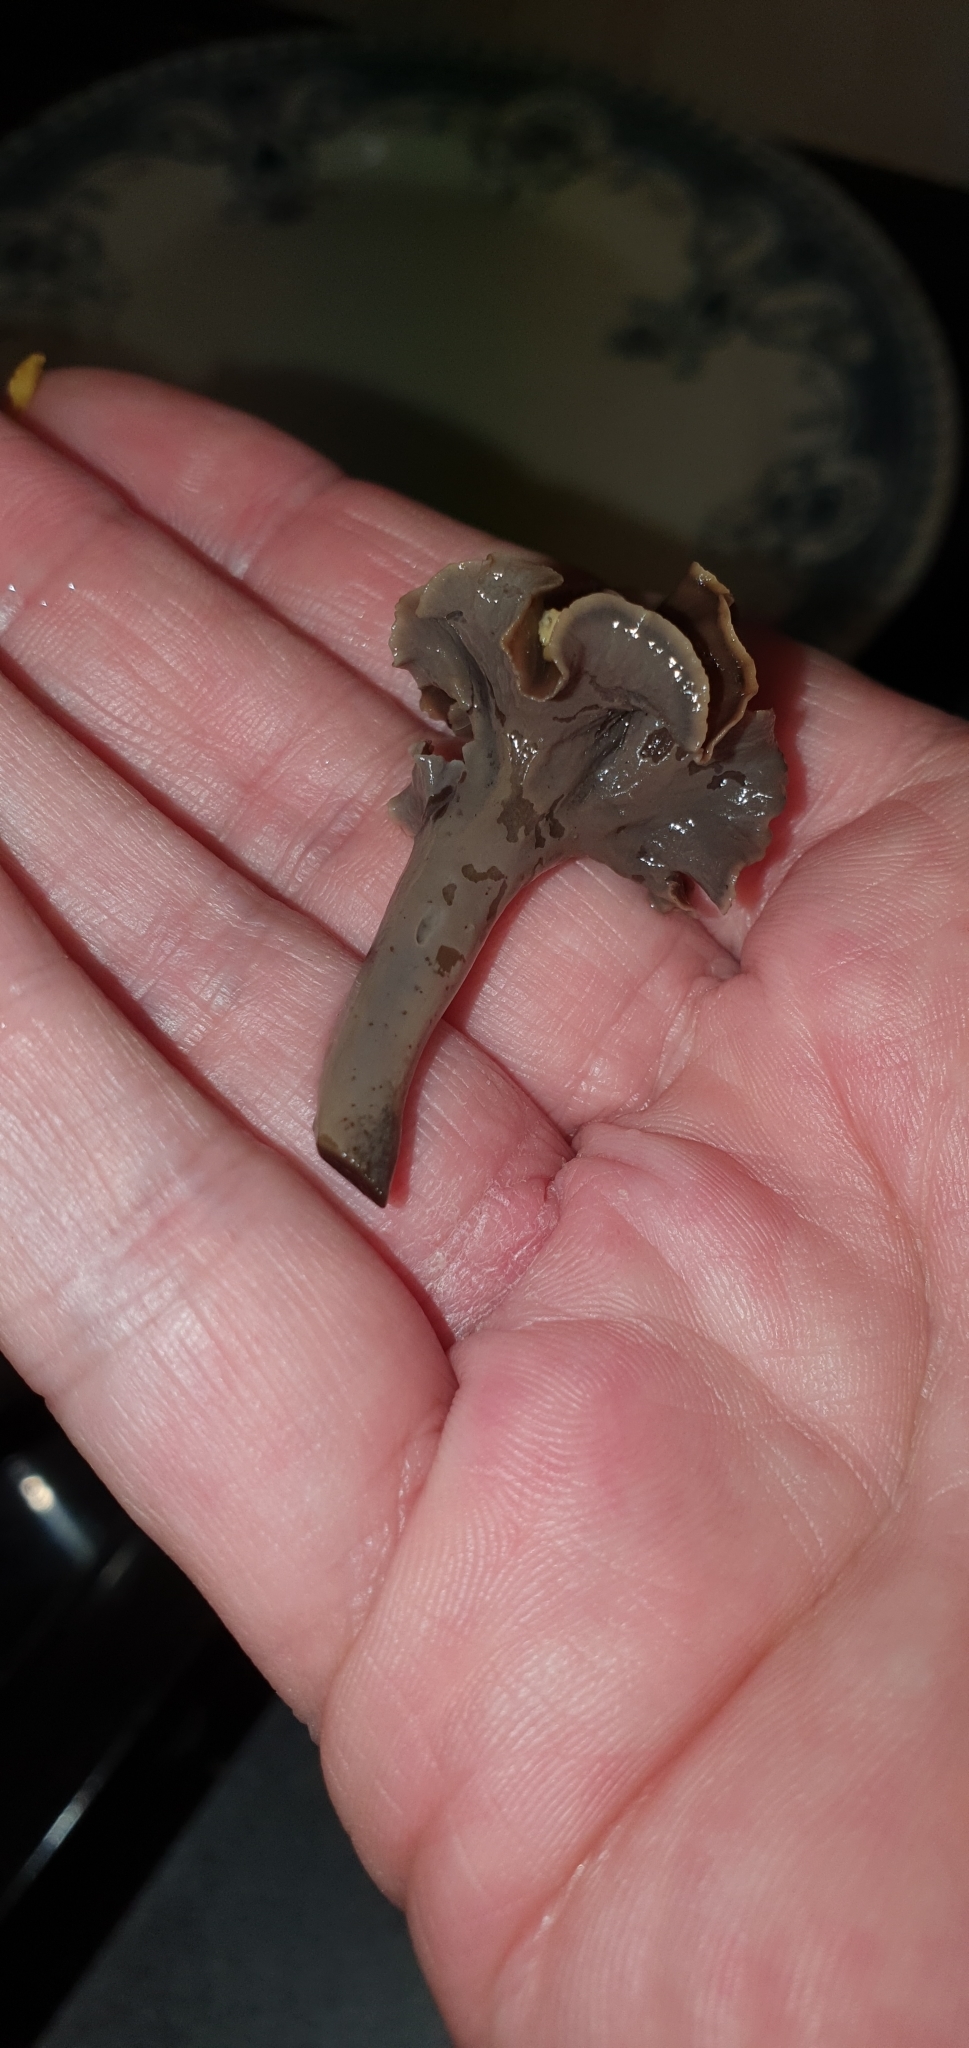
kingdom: Fungi
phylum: Basidiomycota
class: Agaricomycetes
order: Cantharellales
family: Hydnaceae
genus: Craterellus
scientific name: Craterellus cornucopioides
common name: Horn of plenty
